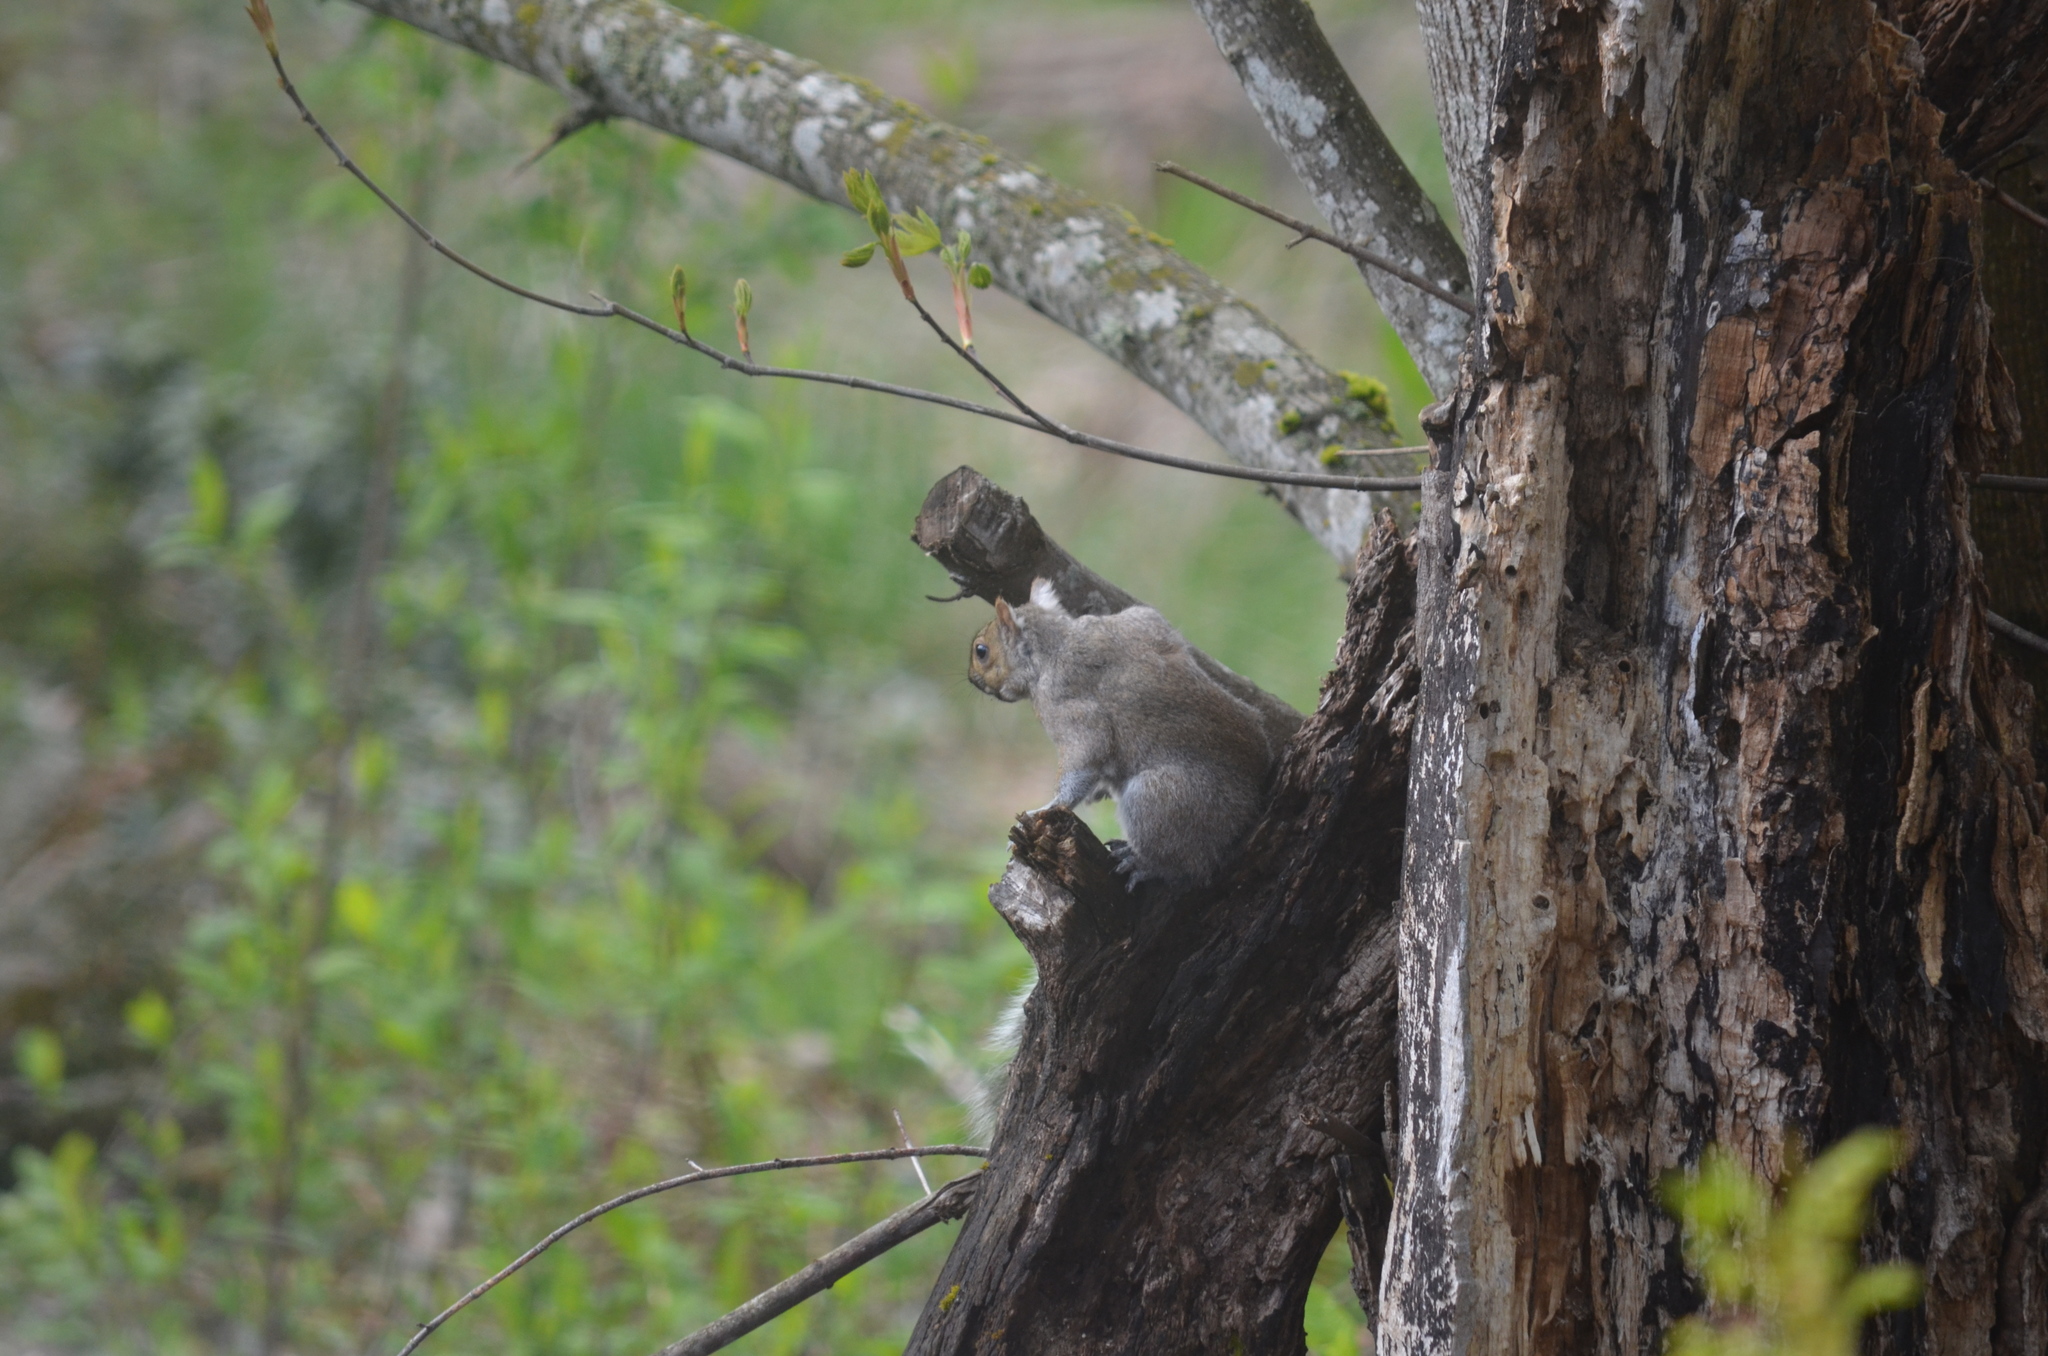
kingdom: Animalia
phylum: Chordata
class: Mammalia
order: Rodentia
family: Sciuridae
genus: Sciurus
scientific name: Sciurus carolinensis
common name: Eastern gray squirrel
